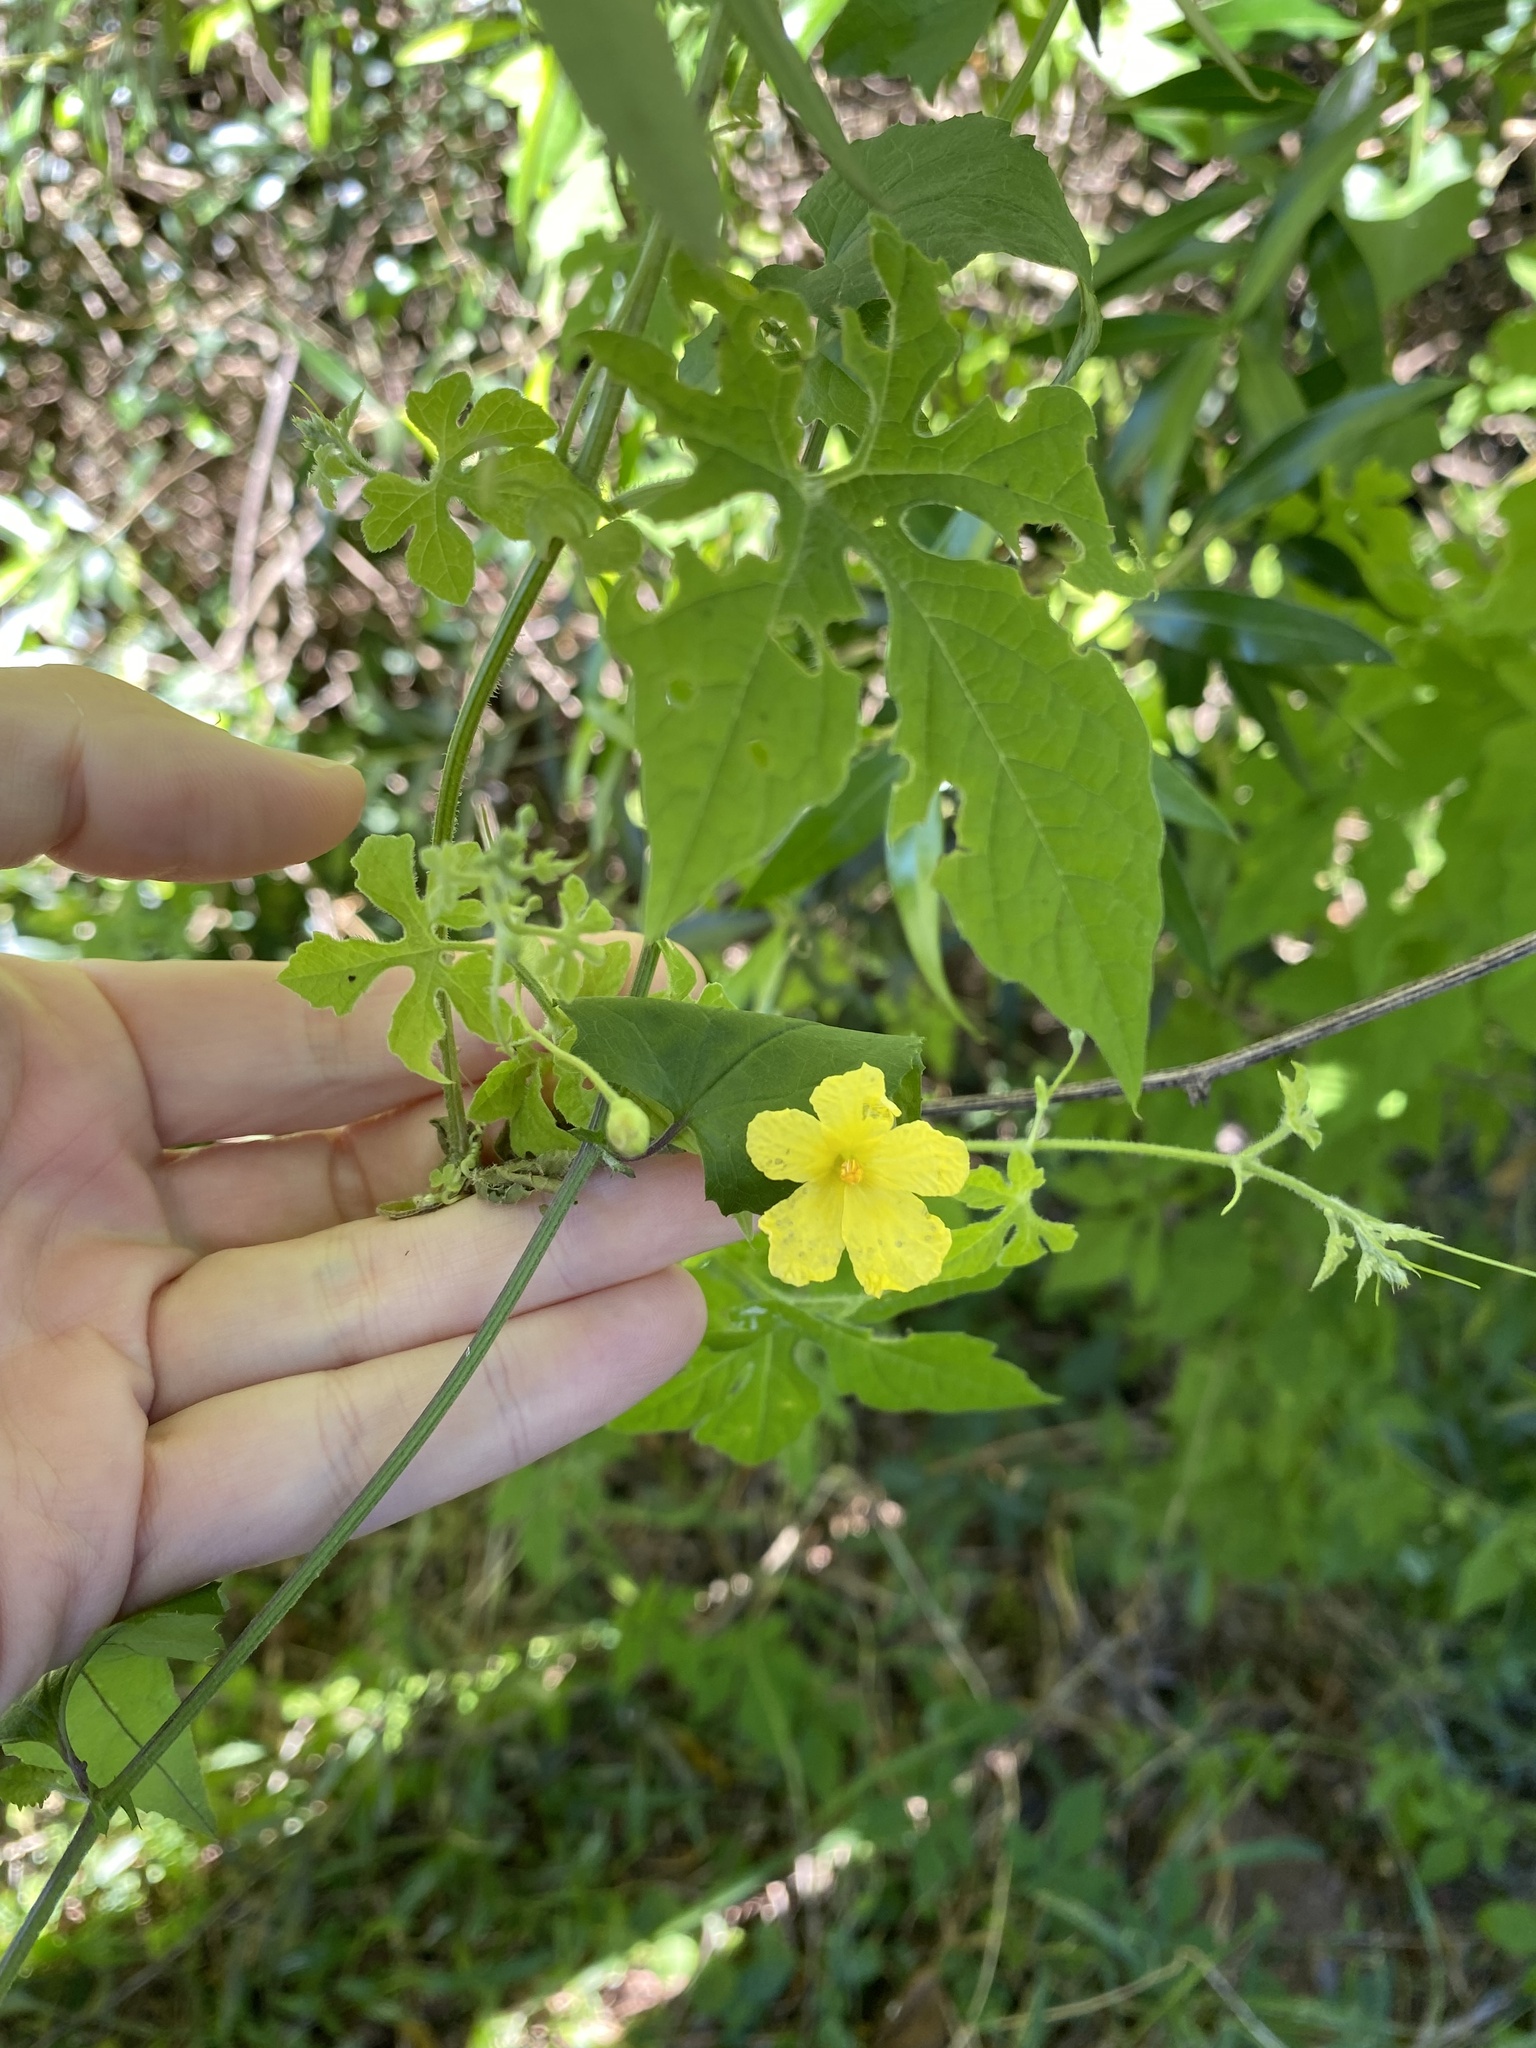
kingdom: Plantae
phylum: Tracheophyta
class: Magnoliopsida
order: Cucurbitales
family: Cucurbitaceae
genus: Momordica
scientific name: Momordica charantia
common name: Balsampear
